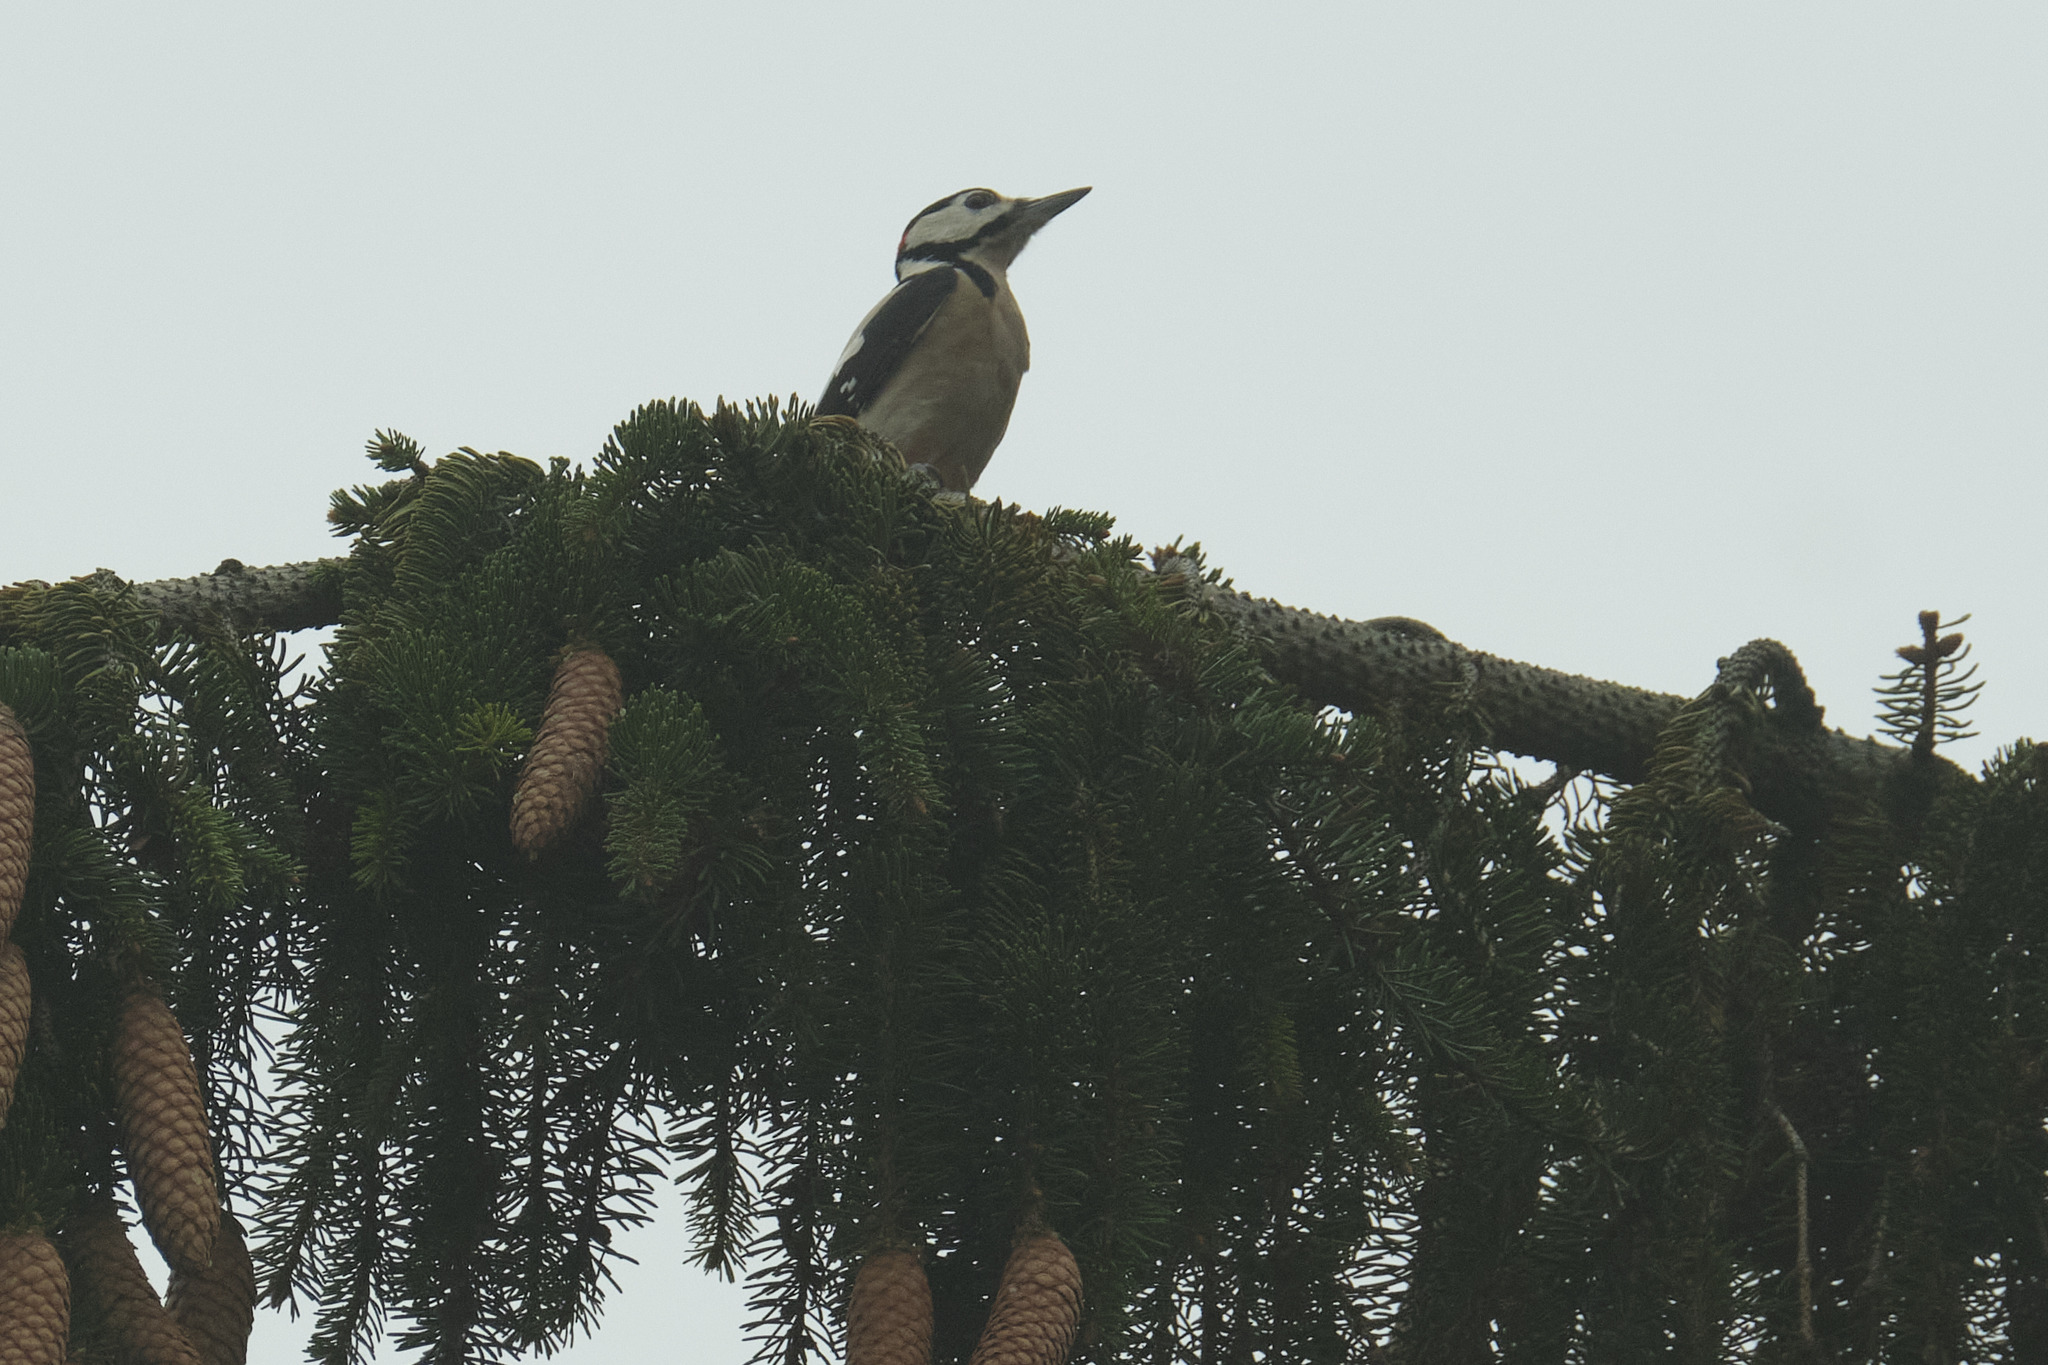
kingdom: Animalia
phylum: Chordata
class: Aves
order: Piciformes
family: Picidae
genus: Dendrocopos
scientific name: Dendrocopos major
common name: Great spotted woodpecker
